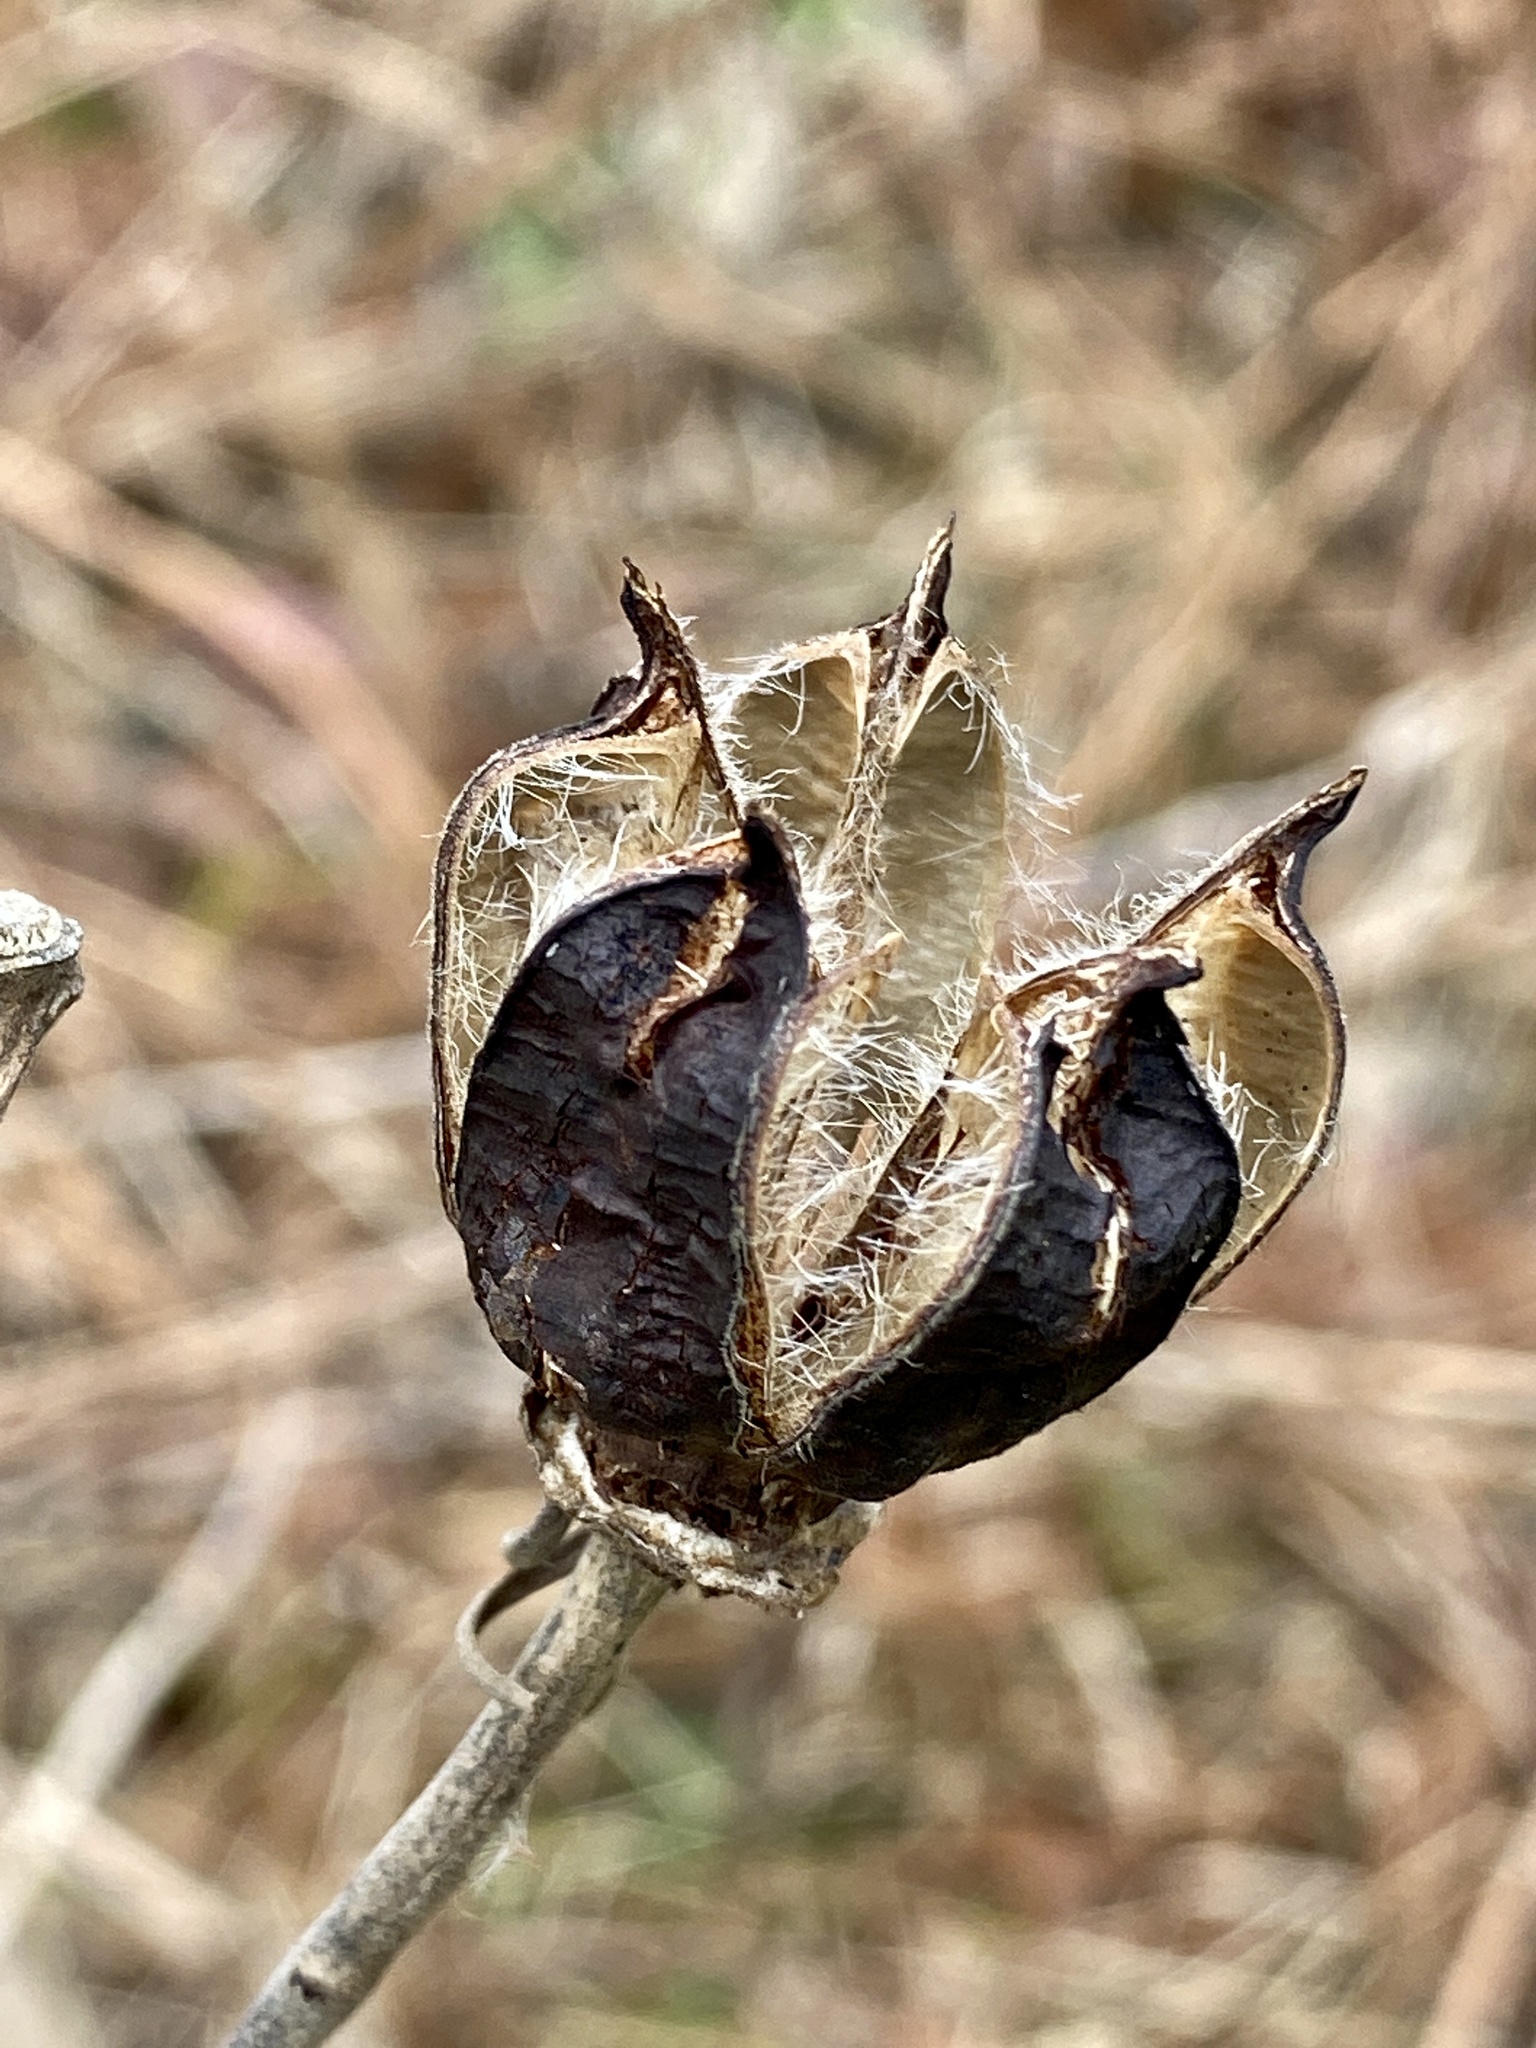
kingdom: Plantae
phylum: Tracheophyta
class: Magnoliopsida
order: Malvales
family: Malvaceae
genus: Hibiscus
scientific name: Hibiscus moscheutos
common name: Common rose-mallow
